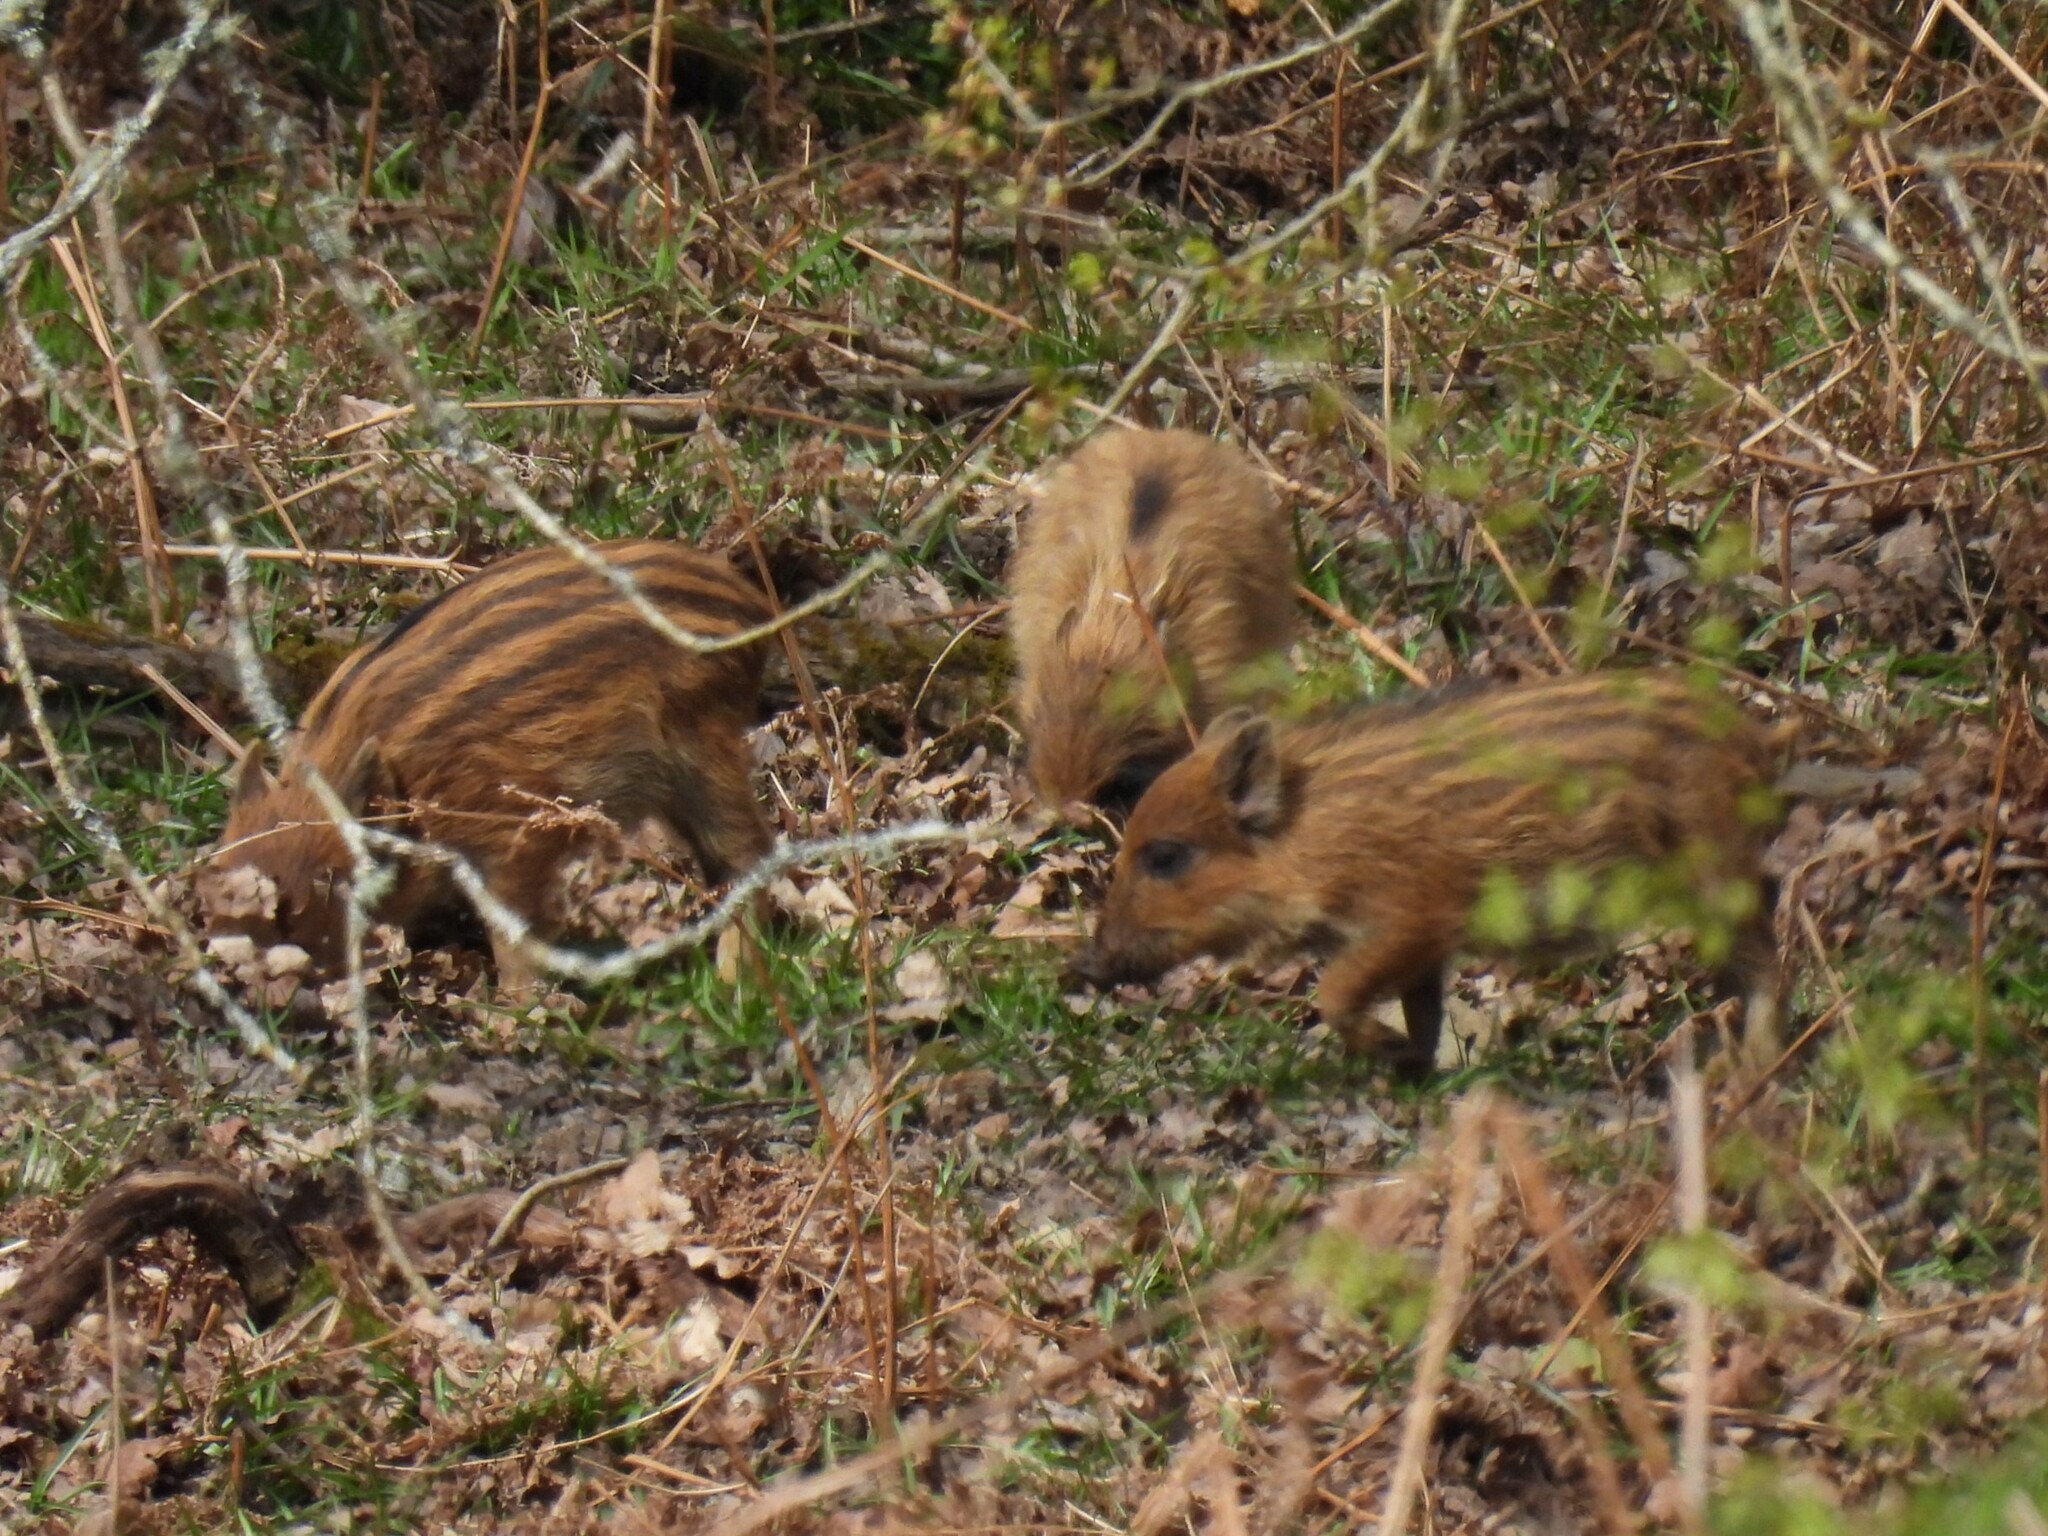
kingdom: Animalia
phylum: Chordata
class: Mammalia
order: Artiodactyla
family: Suidae
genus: Sus
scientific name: Sus scrofa
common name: Wild boar
